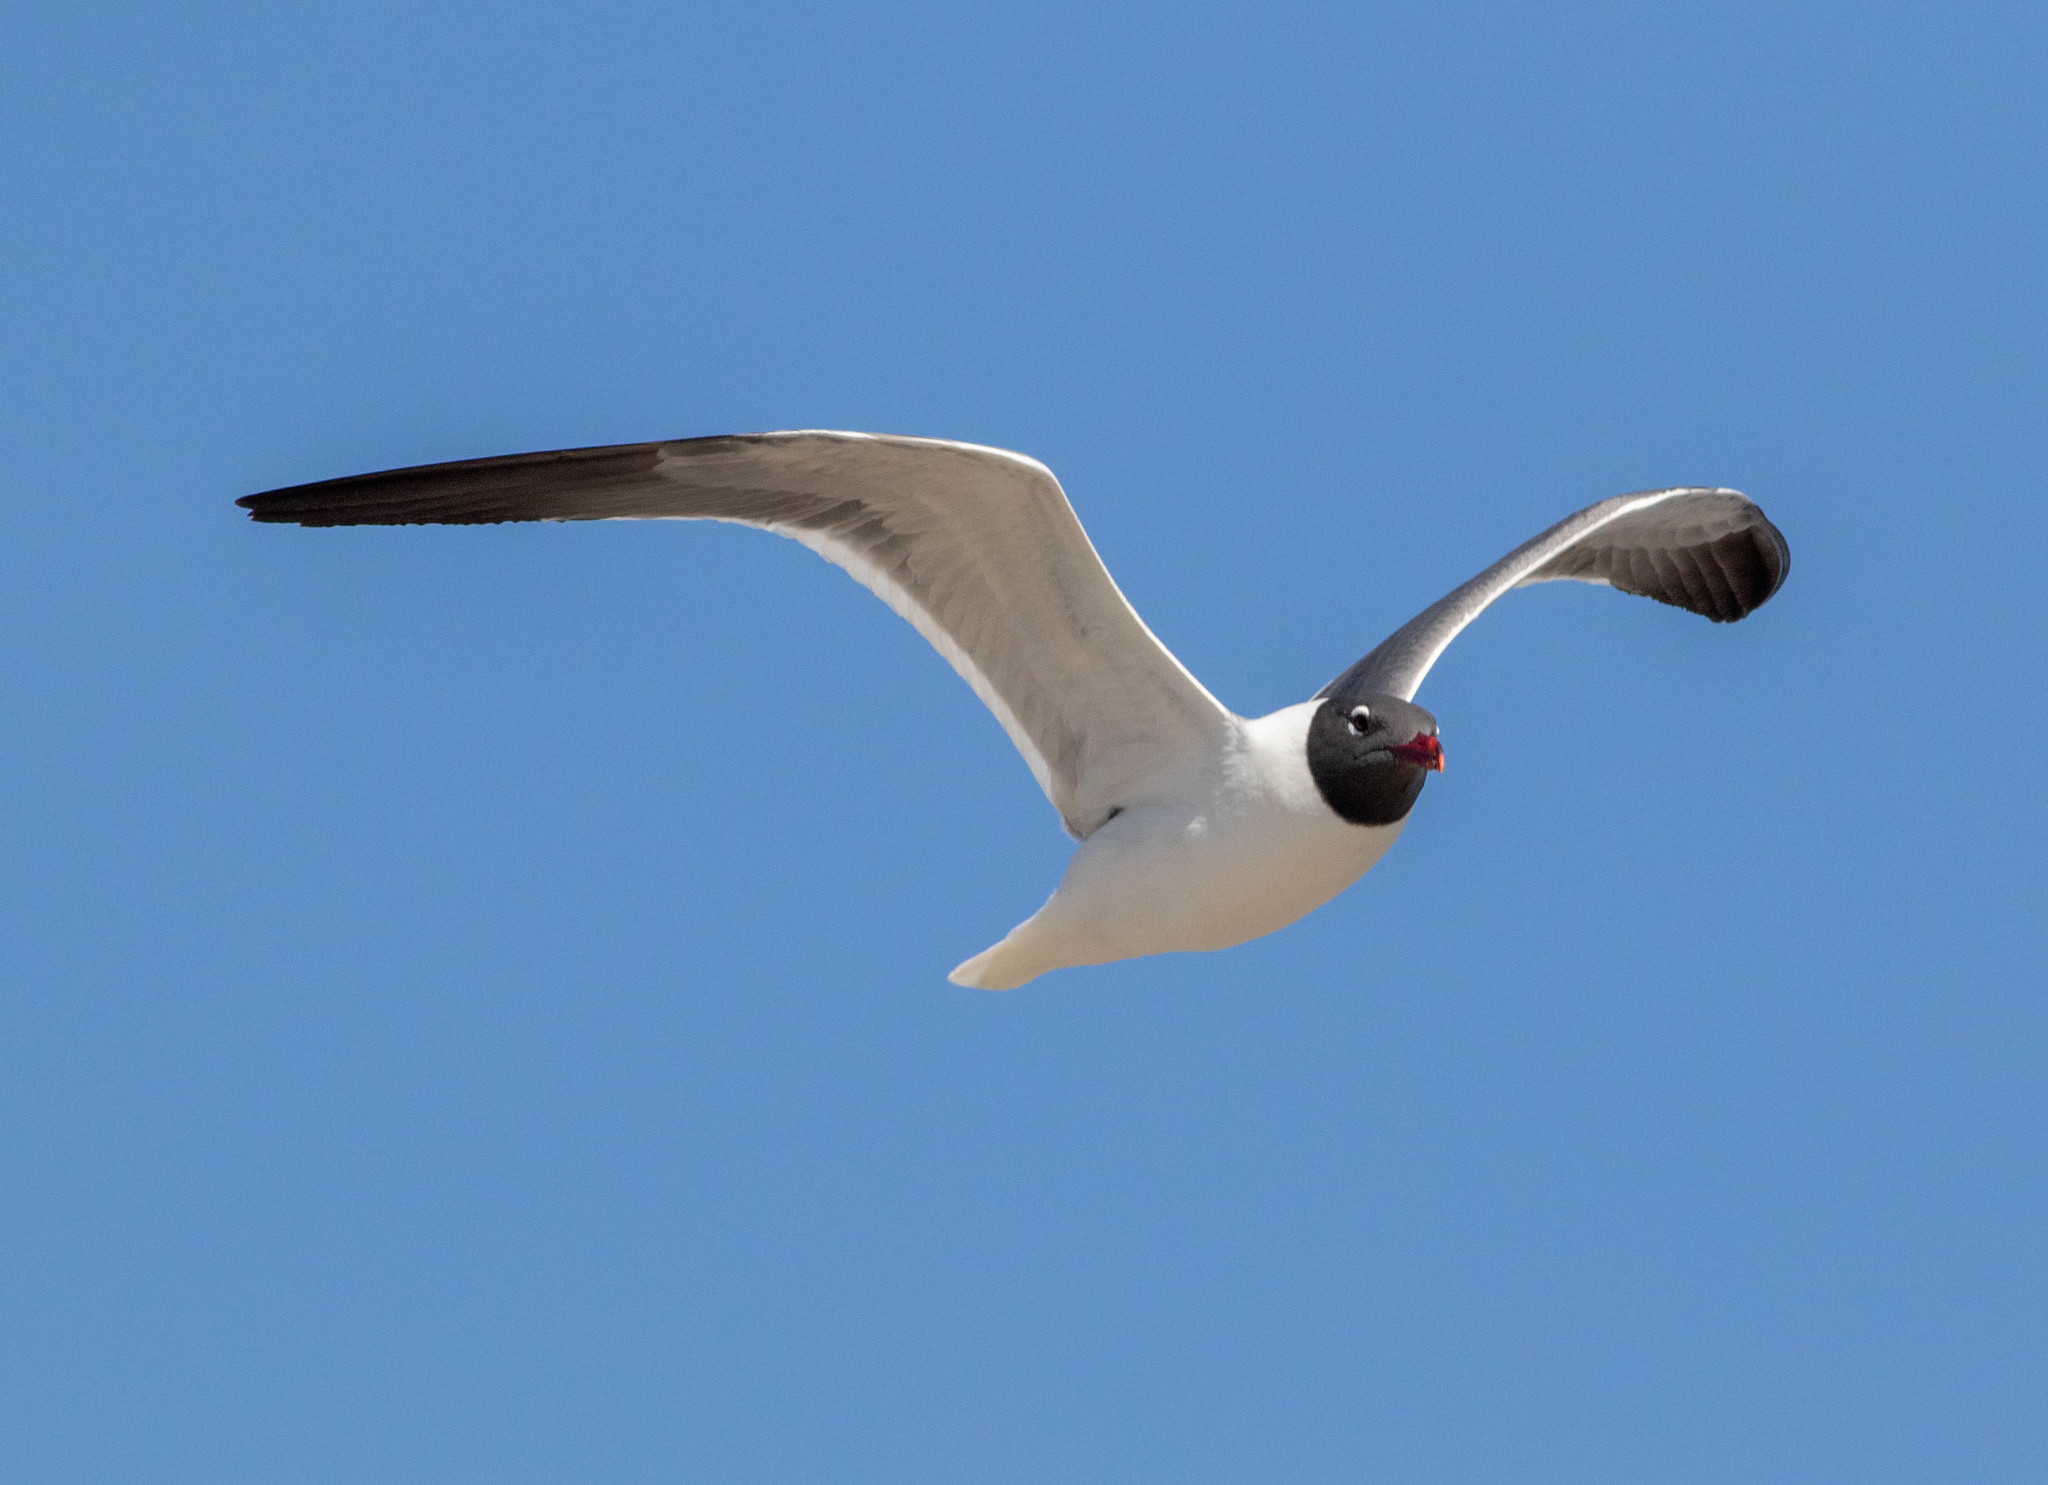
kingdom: Animalia
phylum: Chordata
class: Aves
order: Charadriiformes
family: Laridae
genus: Leucophaeus
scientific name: Leucophaeus atricilla
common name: Laughing gull
